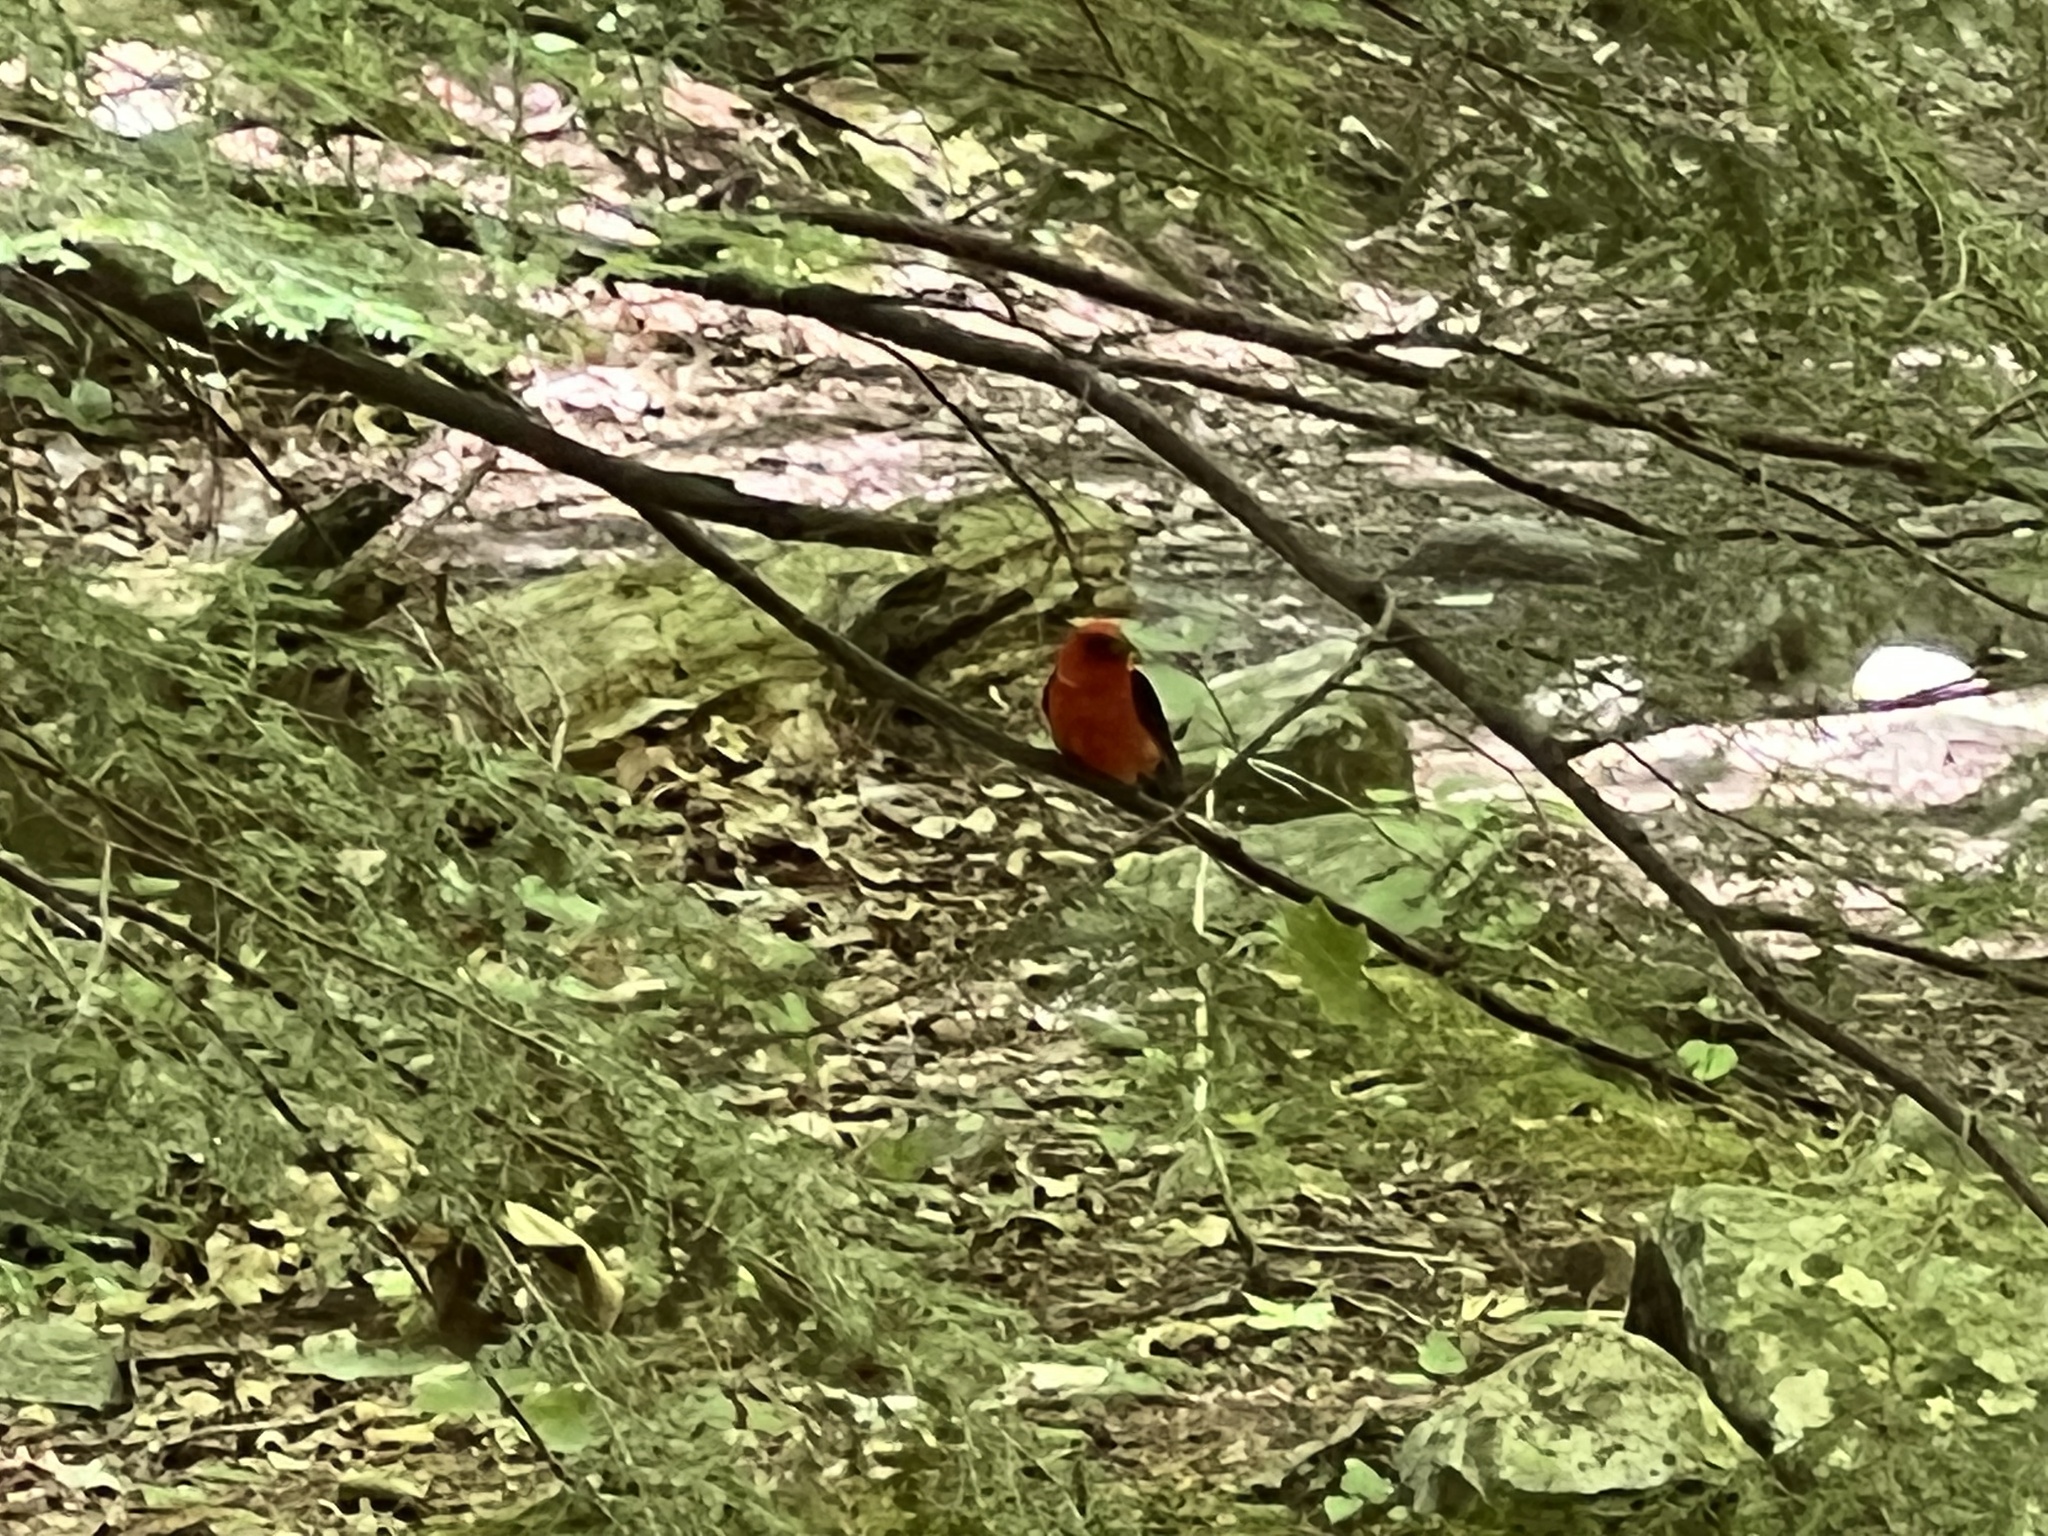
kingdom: Animalia
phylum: Chordata
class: Aves
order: Passeriformes
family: Cardinalidae
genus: Piranga
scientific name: Piranga olivacea
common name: Scarlet tanager
